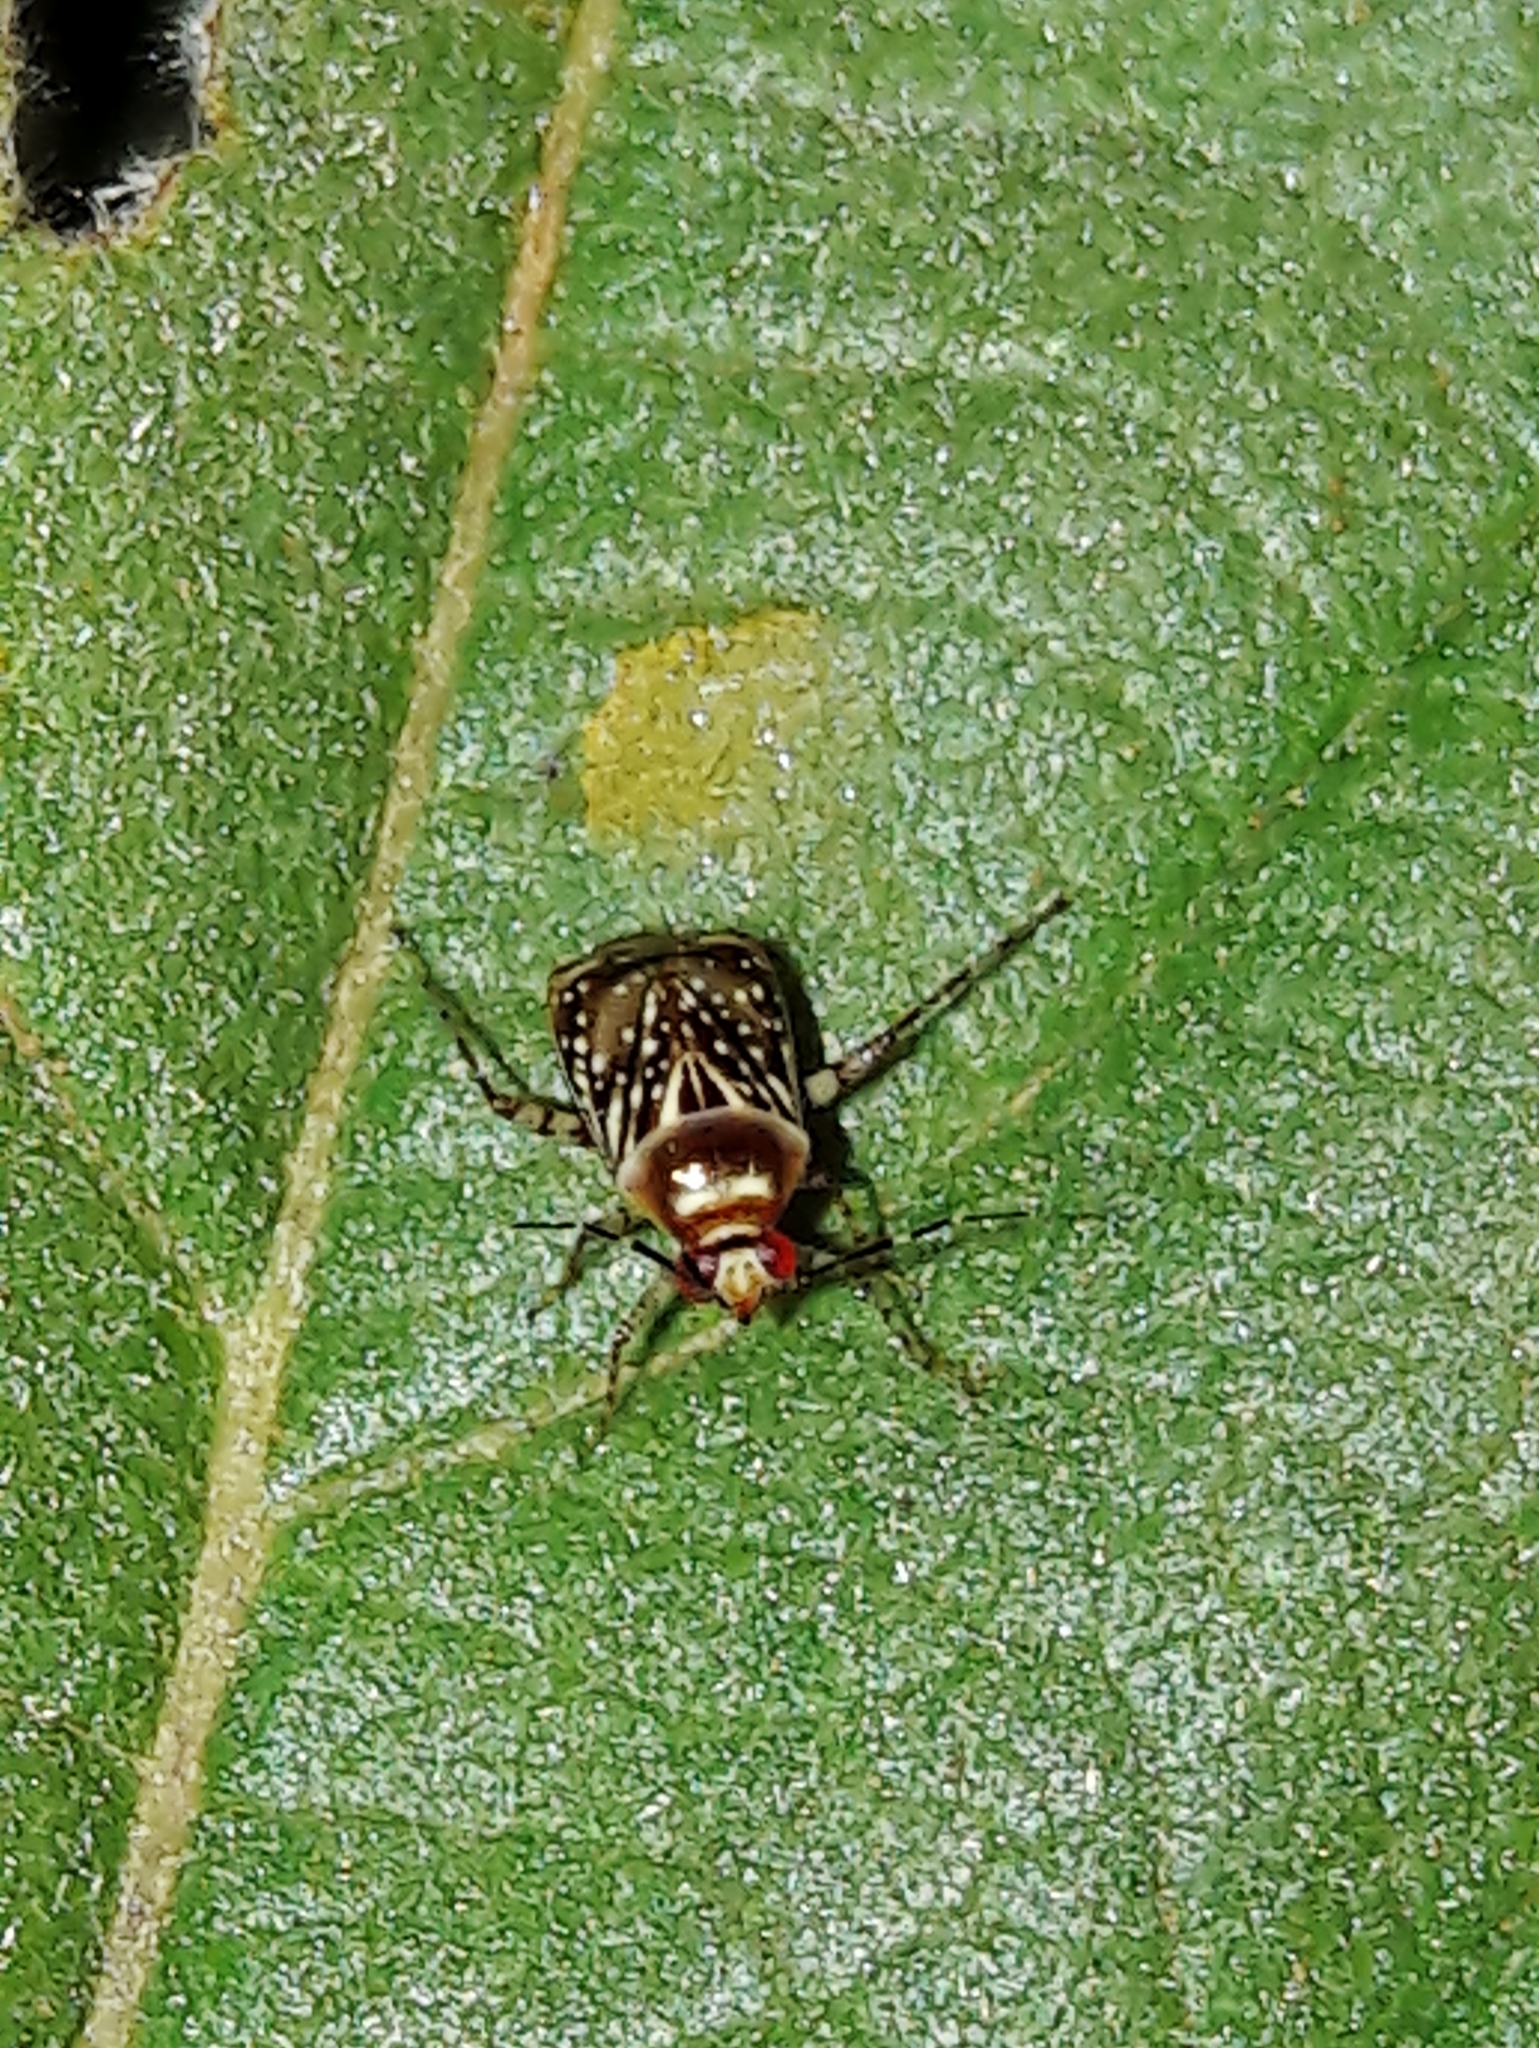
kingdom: Animalia
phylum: Arthropoda
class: Insecta
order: Hemiptera
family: Miridae
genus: Horciasoides
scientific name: Horciasoides nobilellus
